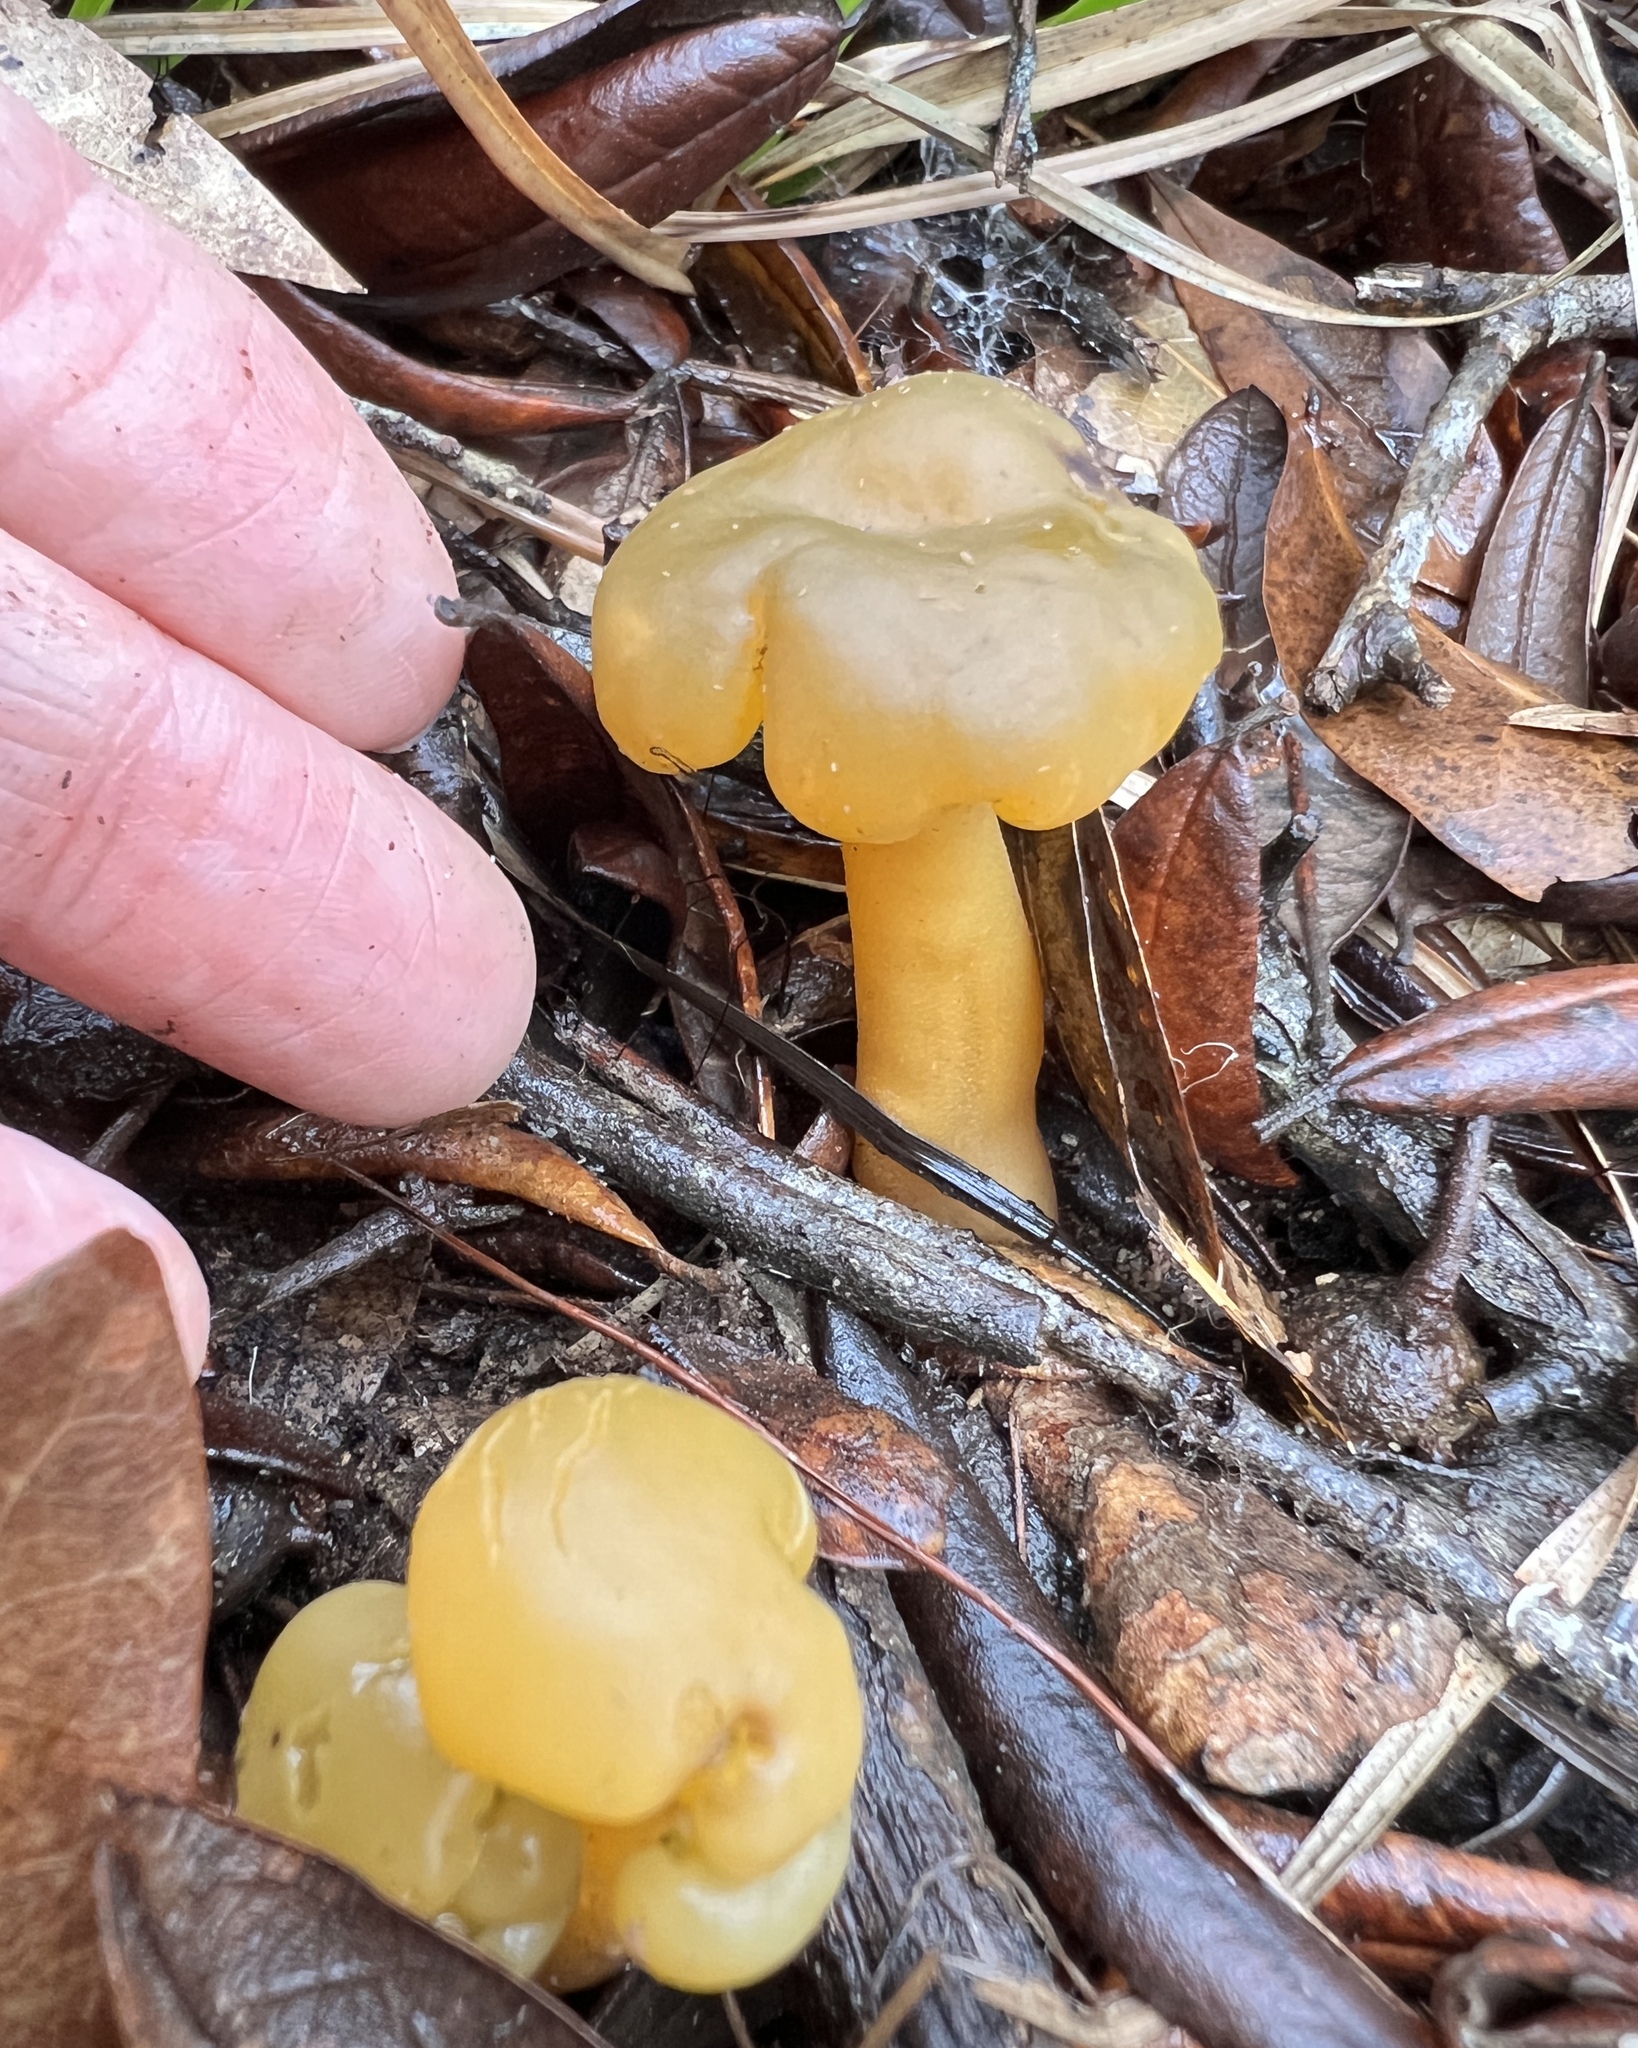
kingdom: Fungi
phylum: Ascomycota
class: Leotiomycetes
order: Leotiales
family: Leotiaceae
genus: Leotia
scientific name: Leotia lubrica
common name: Jellybaby
